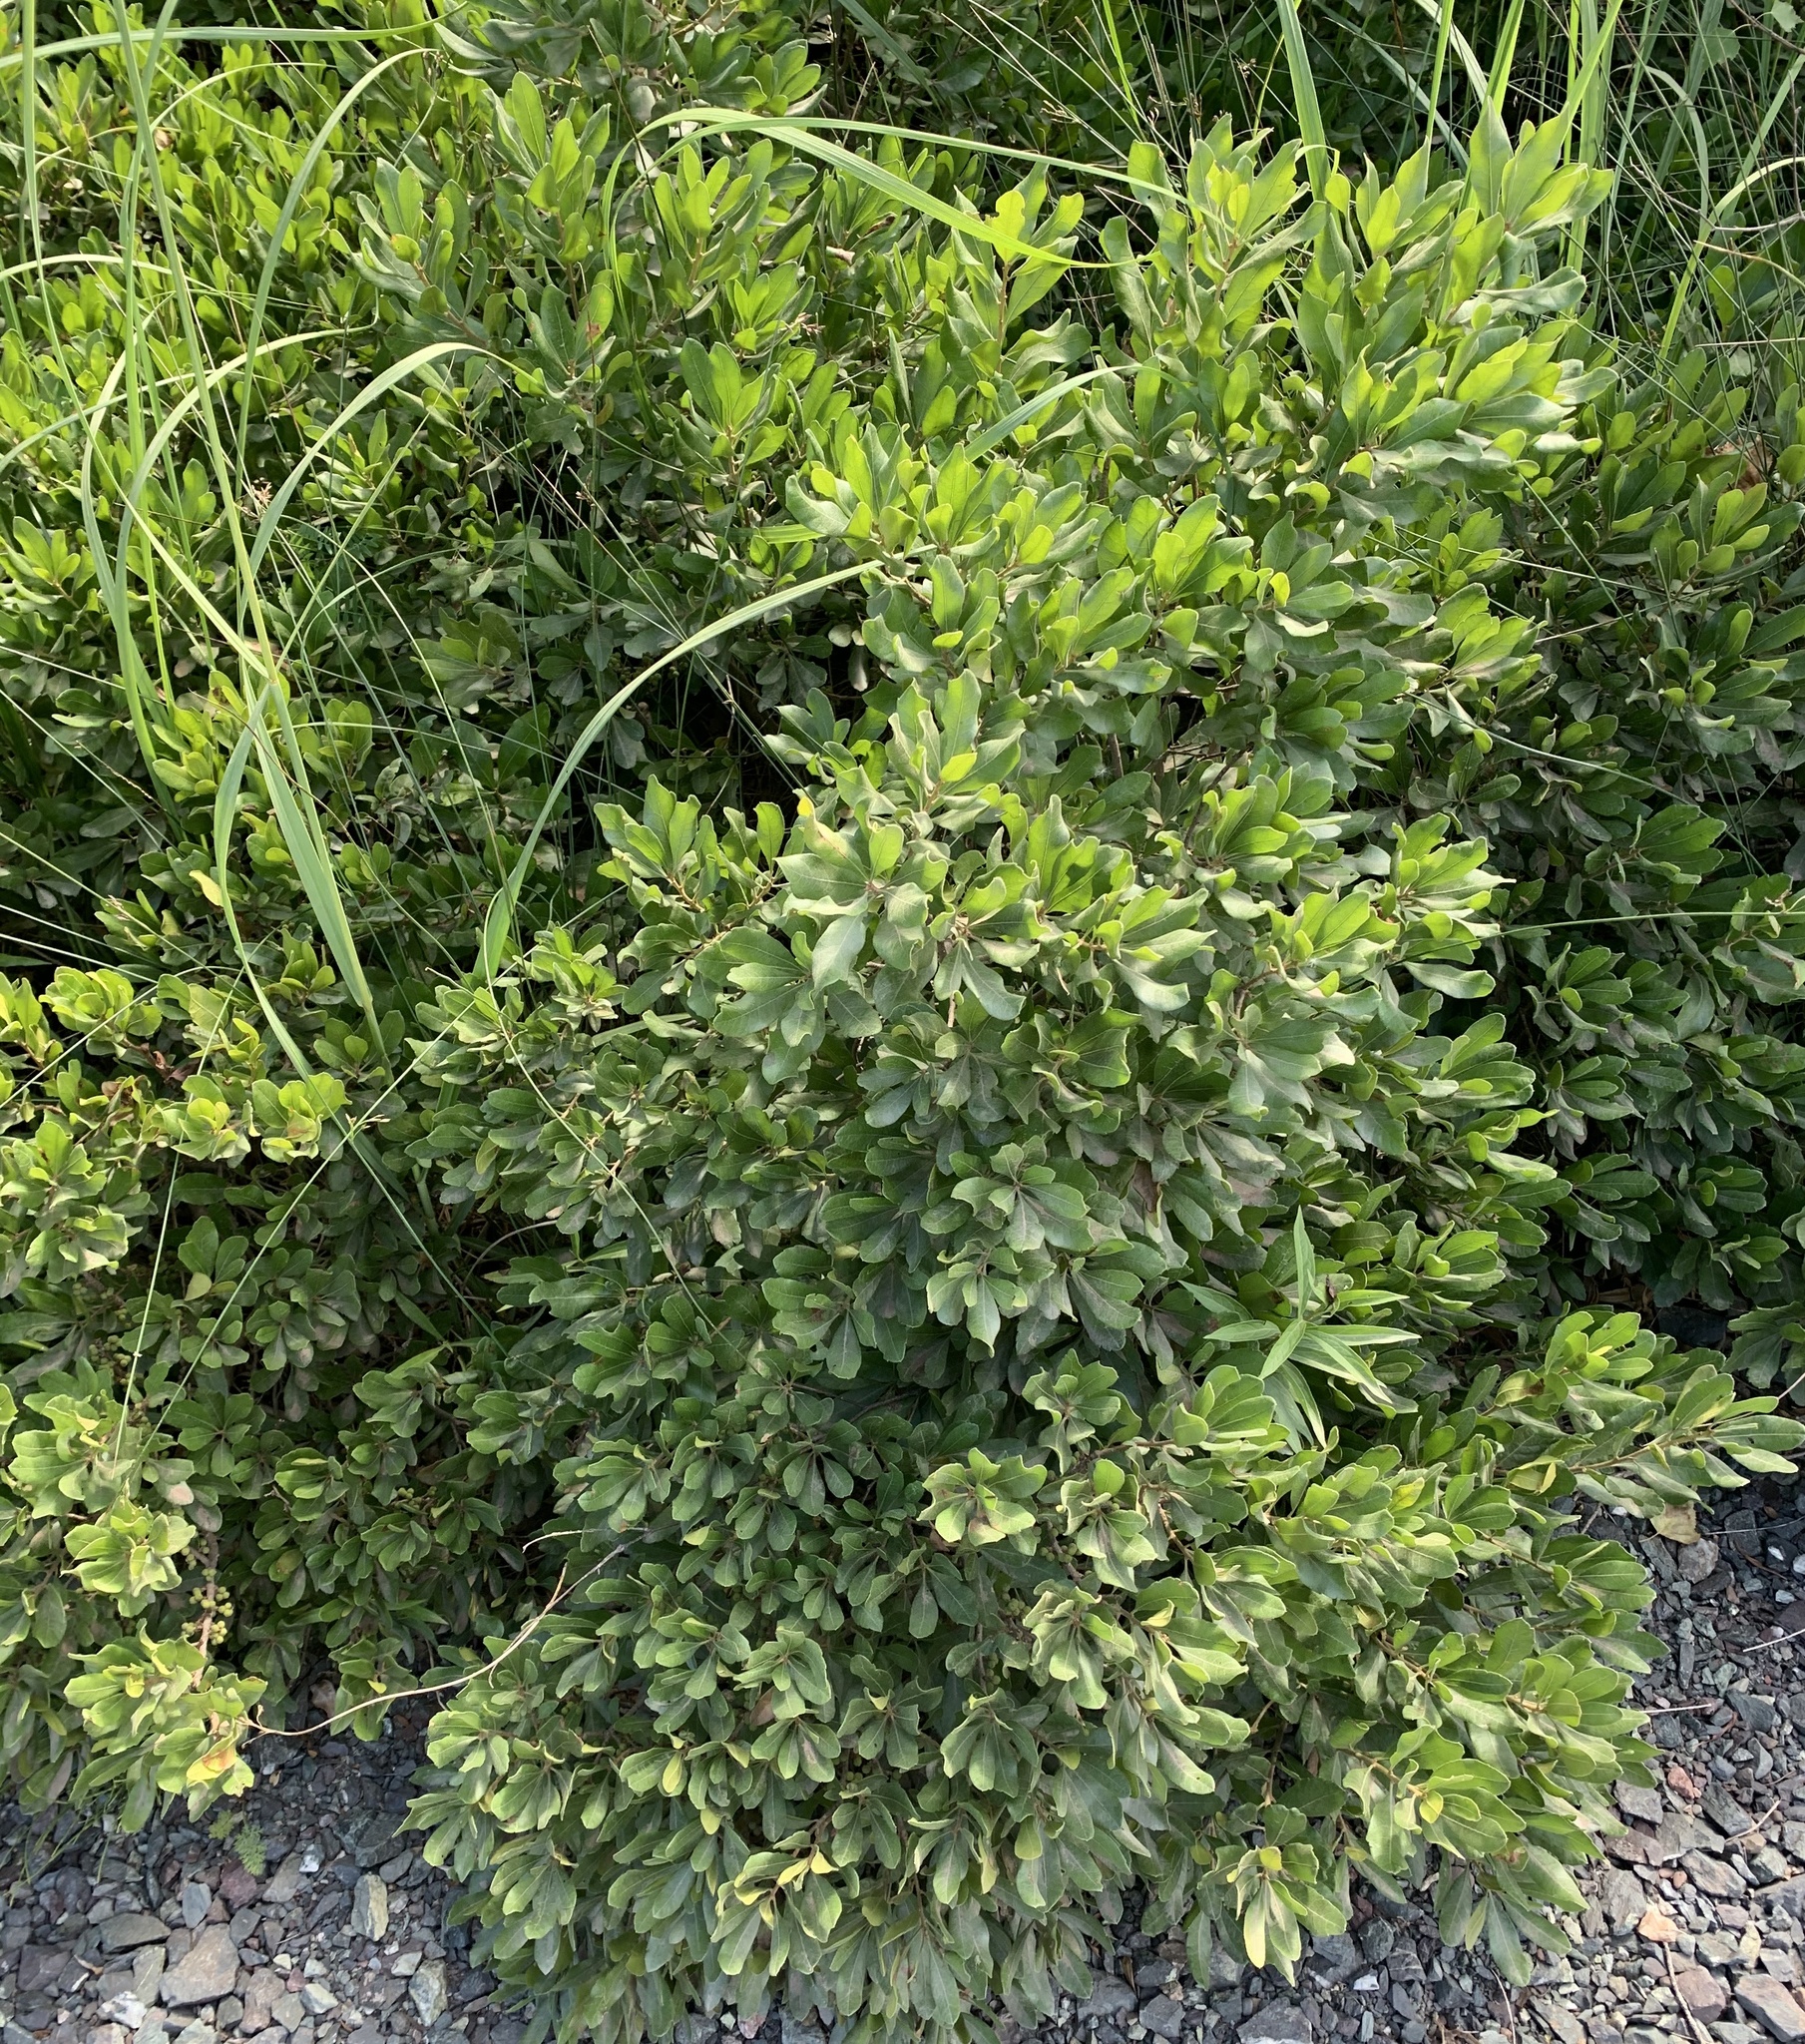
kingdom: Plantae
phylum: Tracheophyta
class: Magnoliopsida
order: Fagales
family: Myricaceae
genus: Morella
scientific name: Morella pensylvanica
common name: Northern bayberry
